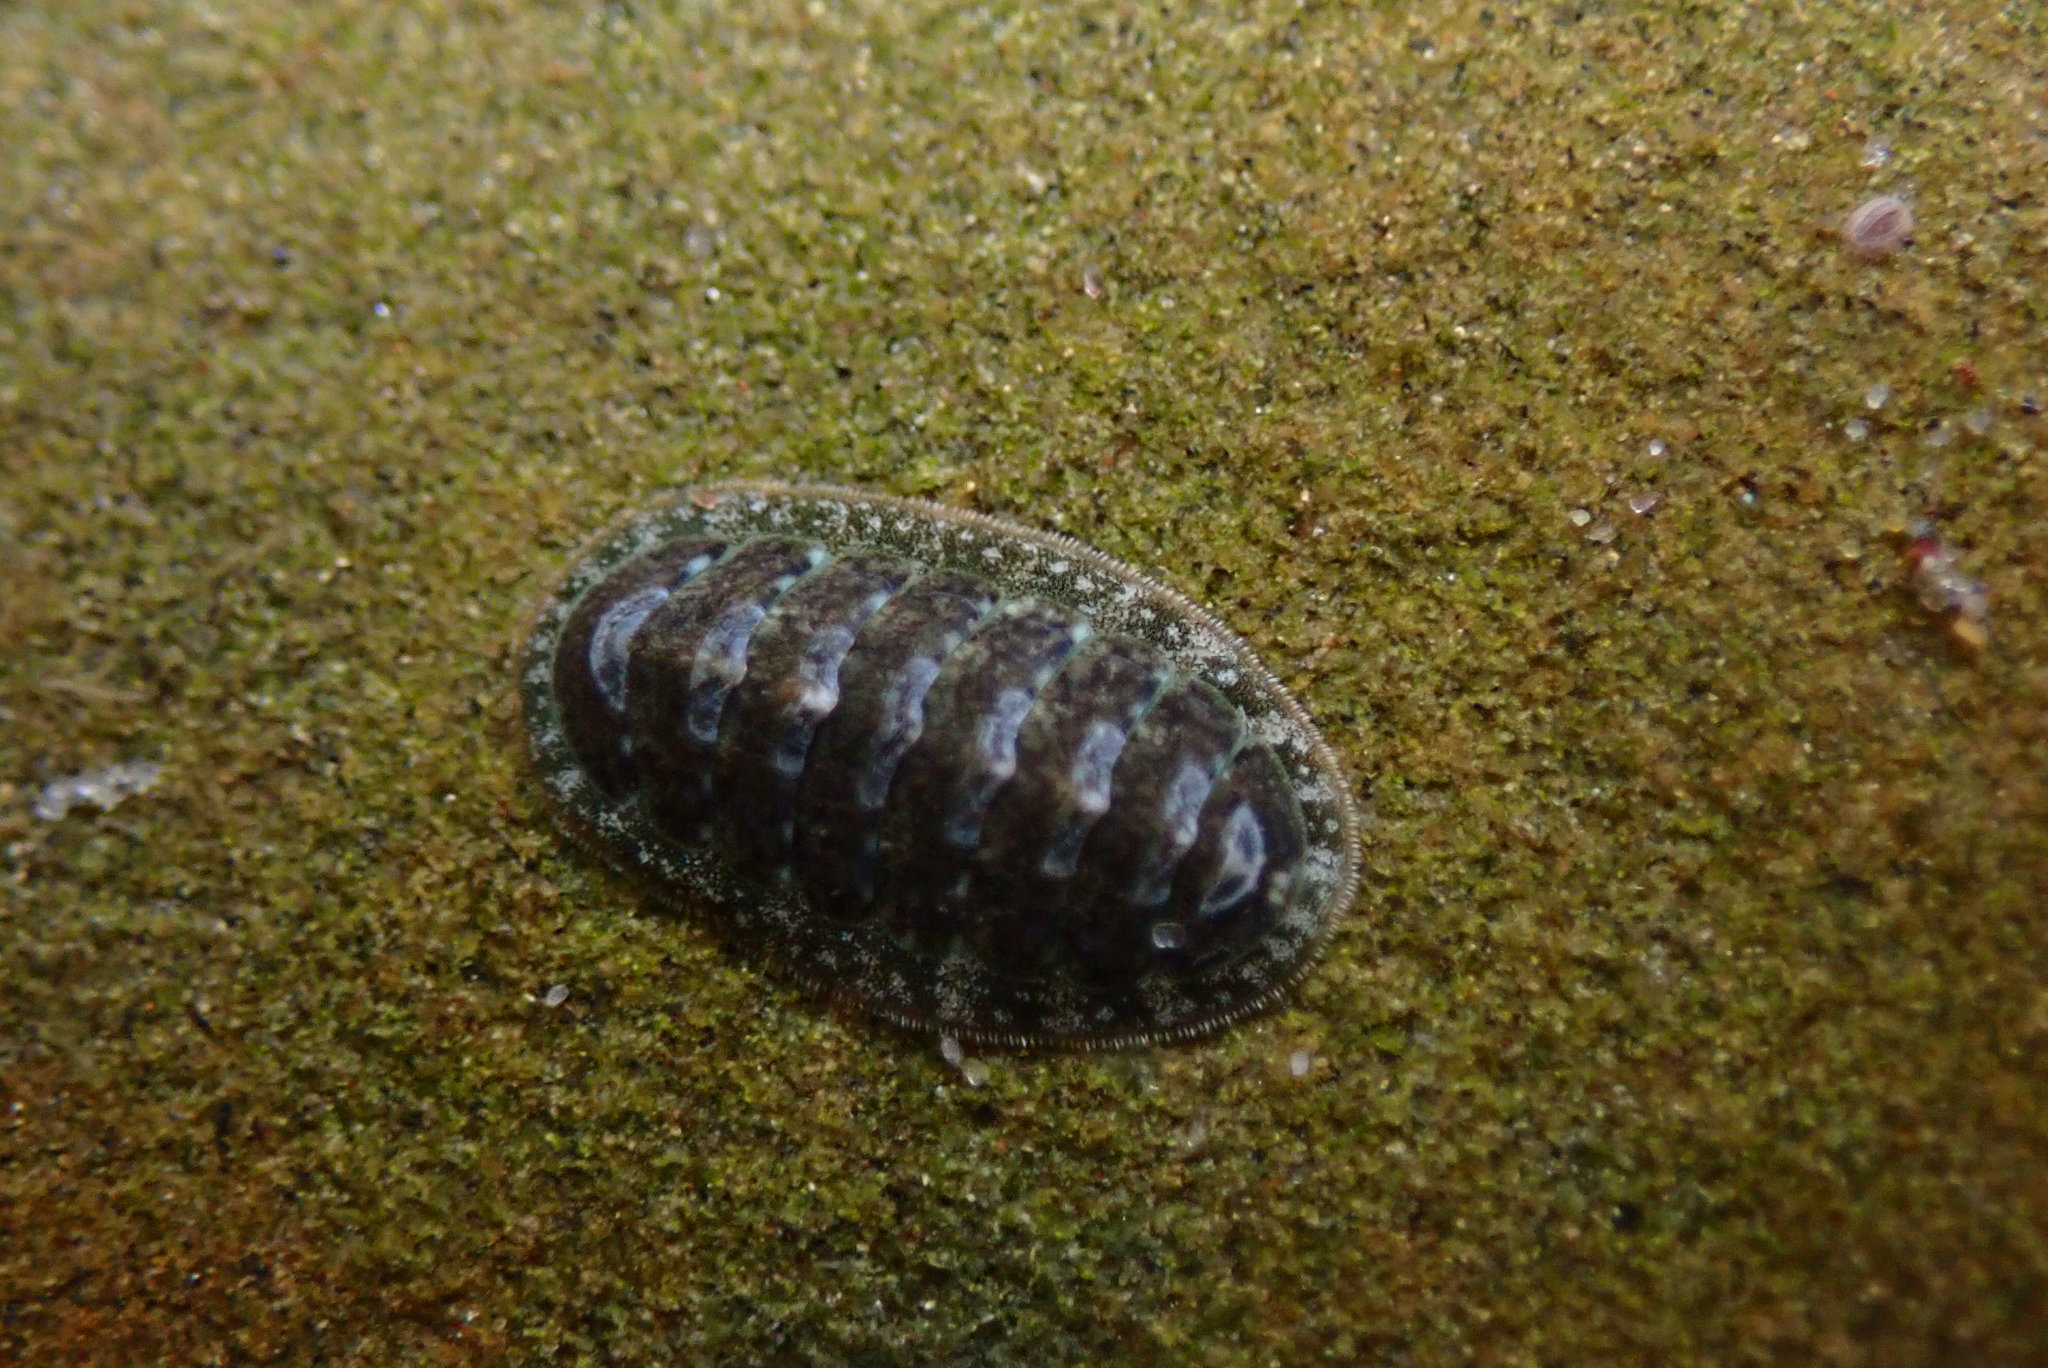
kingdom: Animalia
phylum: Mollusca
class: Polyplacophora
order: Chitonida
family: Tonicellidae
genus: Cyanoplax
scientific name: Cyanoplax keepiana
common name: Keep's chiton
